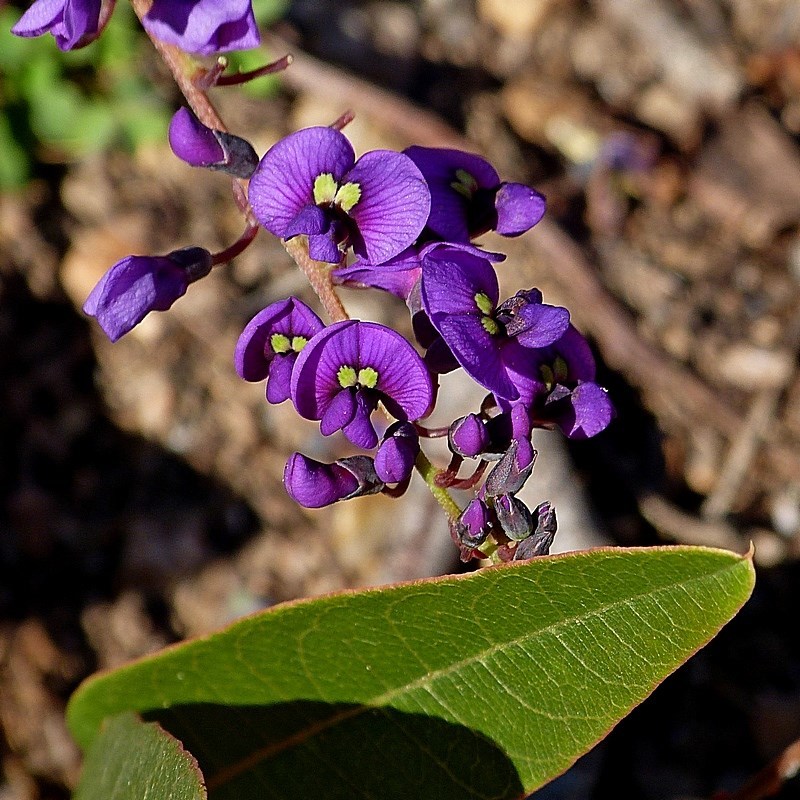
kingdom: Plantae
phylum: Tracheophyta
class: Magnoliopsida
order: Fabales
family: Fabaceae
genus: Hardenbergia
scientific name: Hardenbergia violacea
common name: Coral-pea
